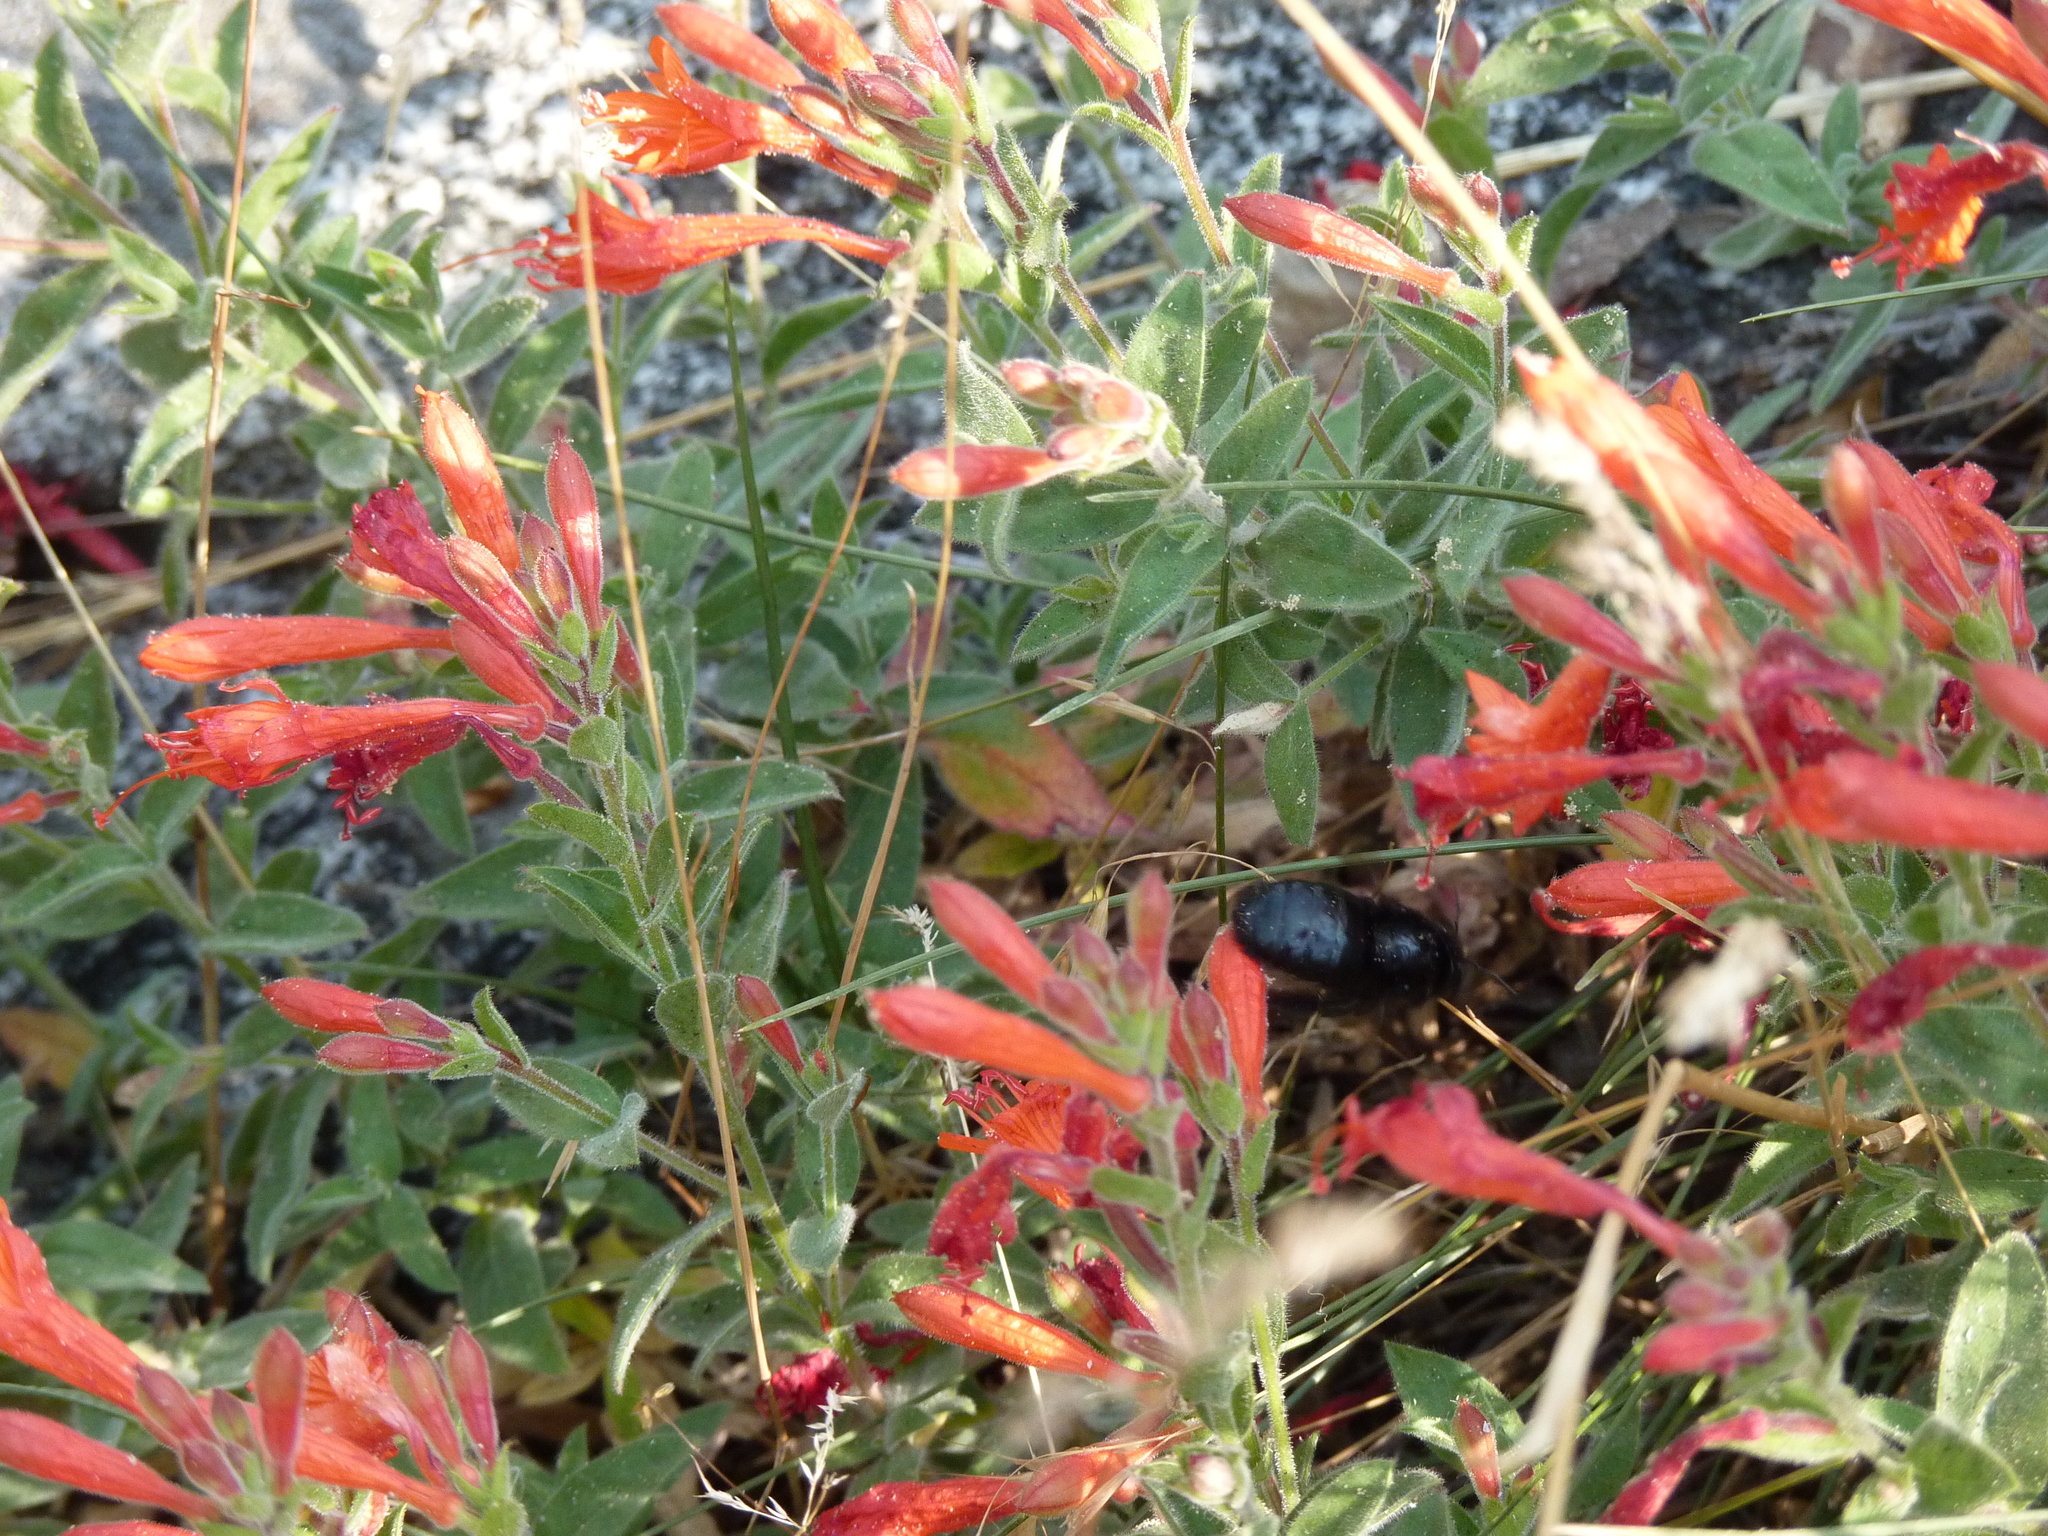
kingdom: Plantae
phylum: Tracheophyta
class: Magnoliopsida
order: Myrtales
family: Onagraceae
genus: Epilobium
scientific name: Epilobium canum
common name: California-fuchsia
